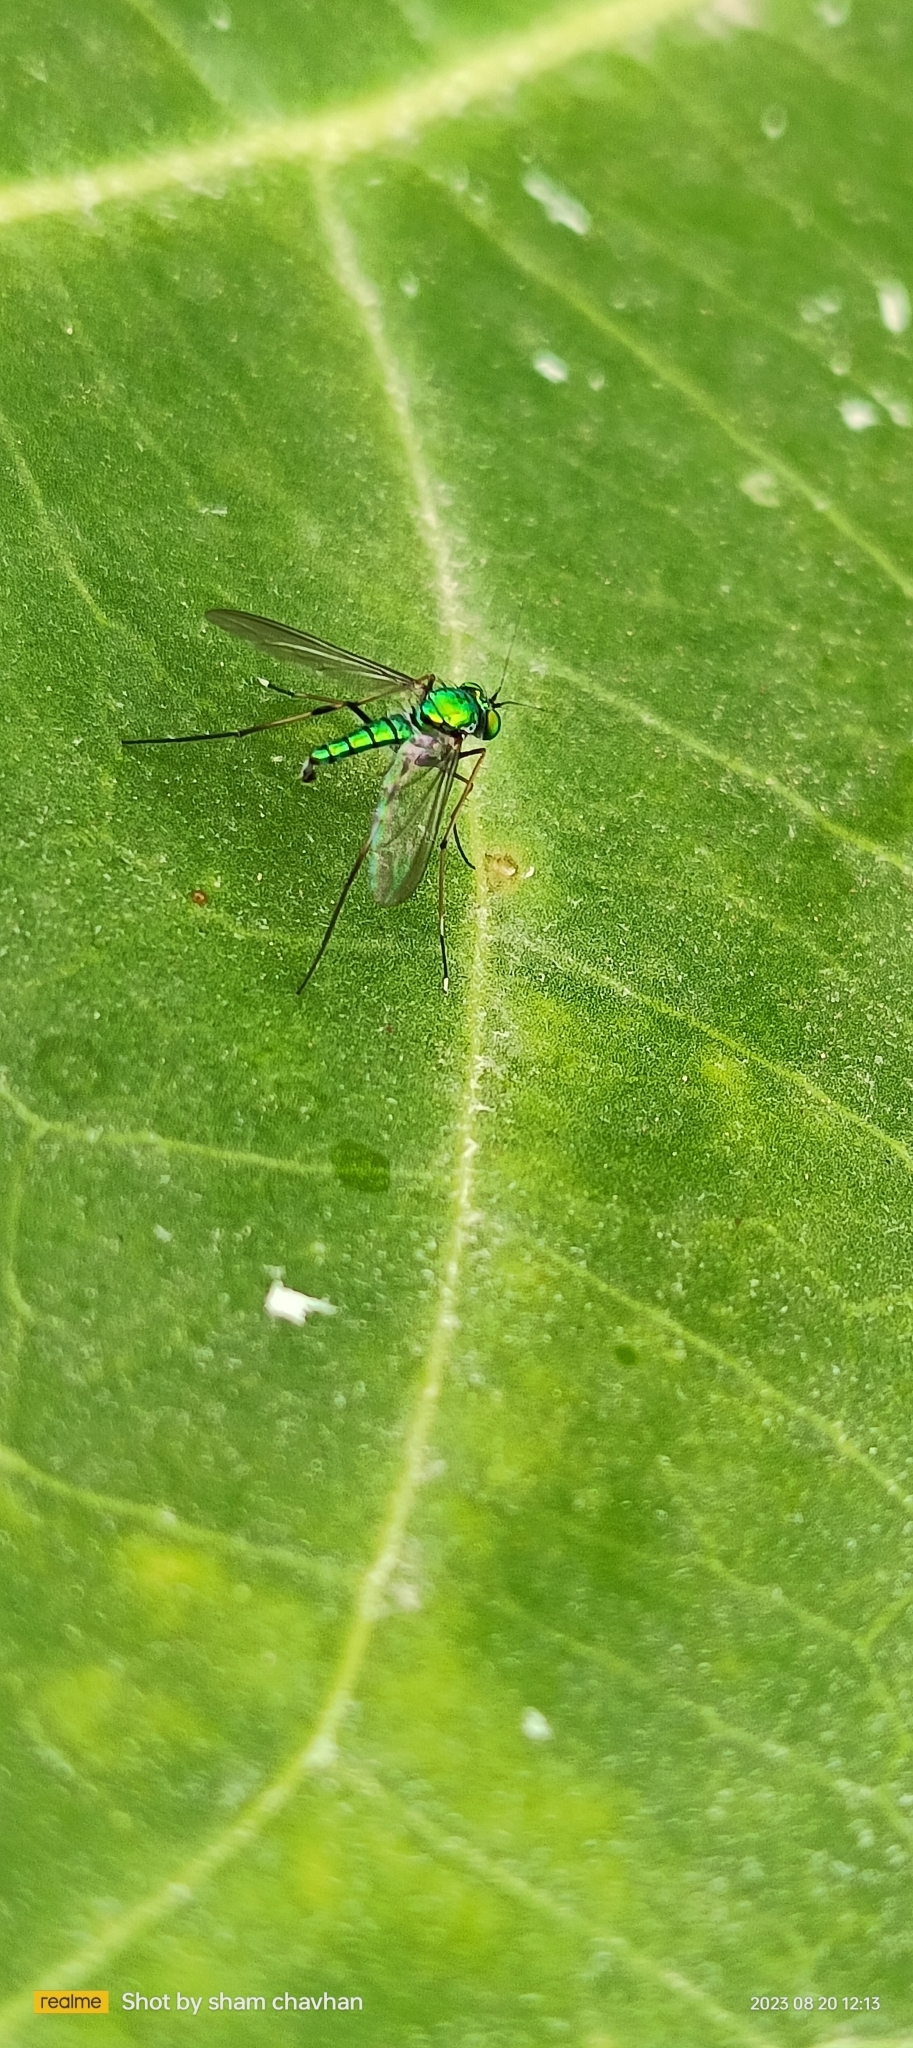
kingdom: Animalia
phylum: Arthropoda
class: Insecta
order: Diptera
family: Dolichopodidae
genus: Chrysosoma
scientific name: Chrysosoma leucopogon
